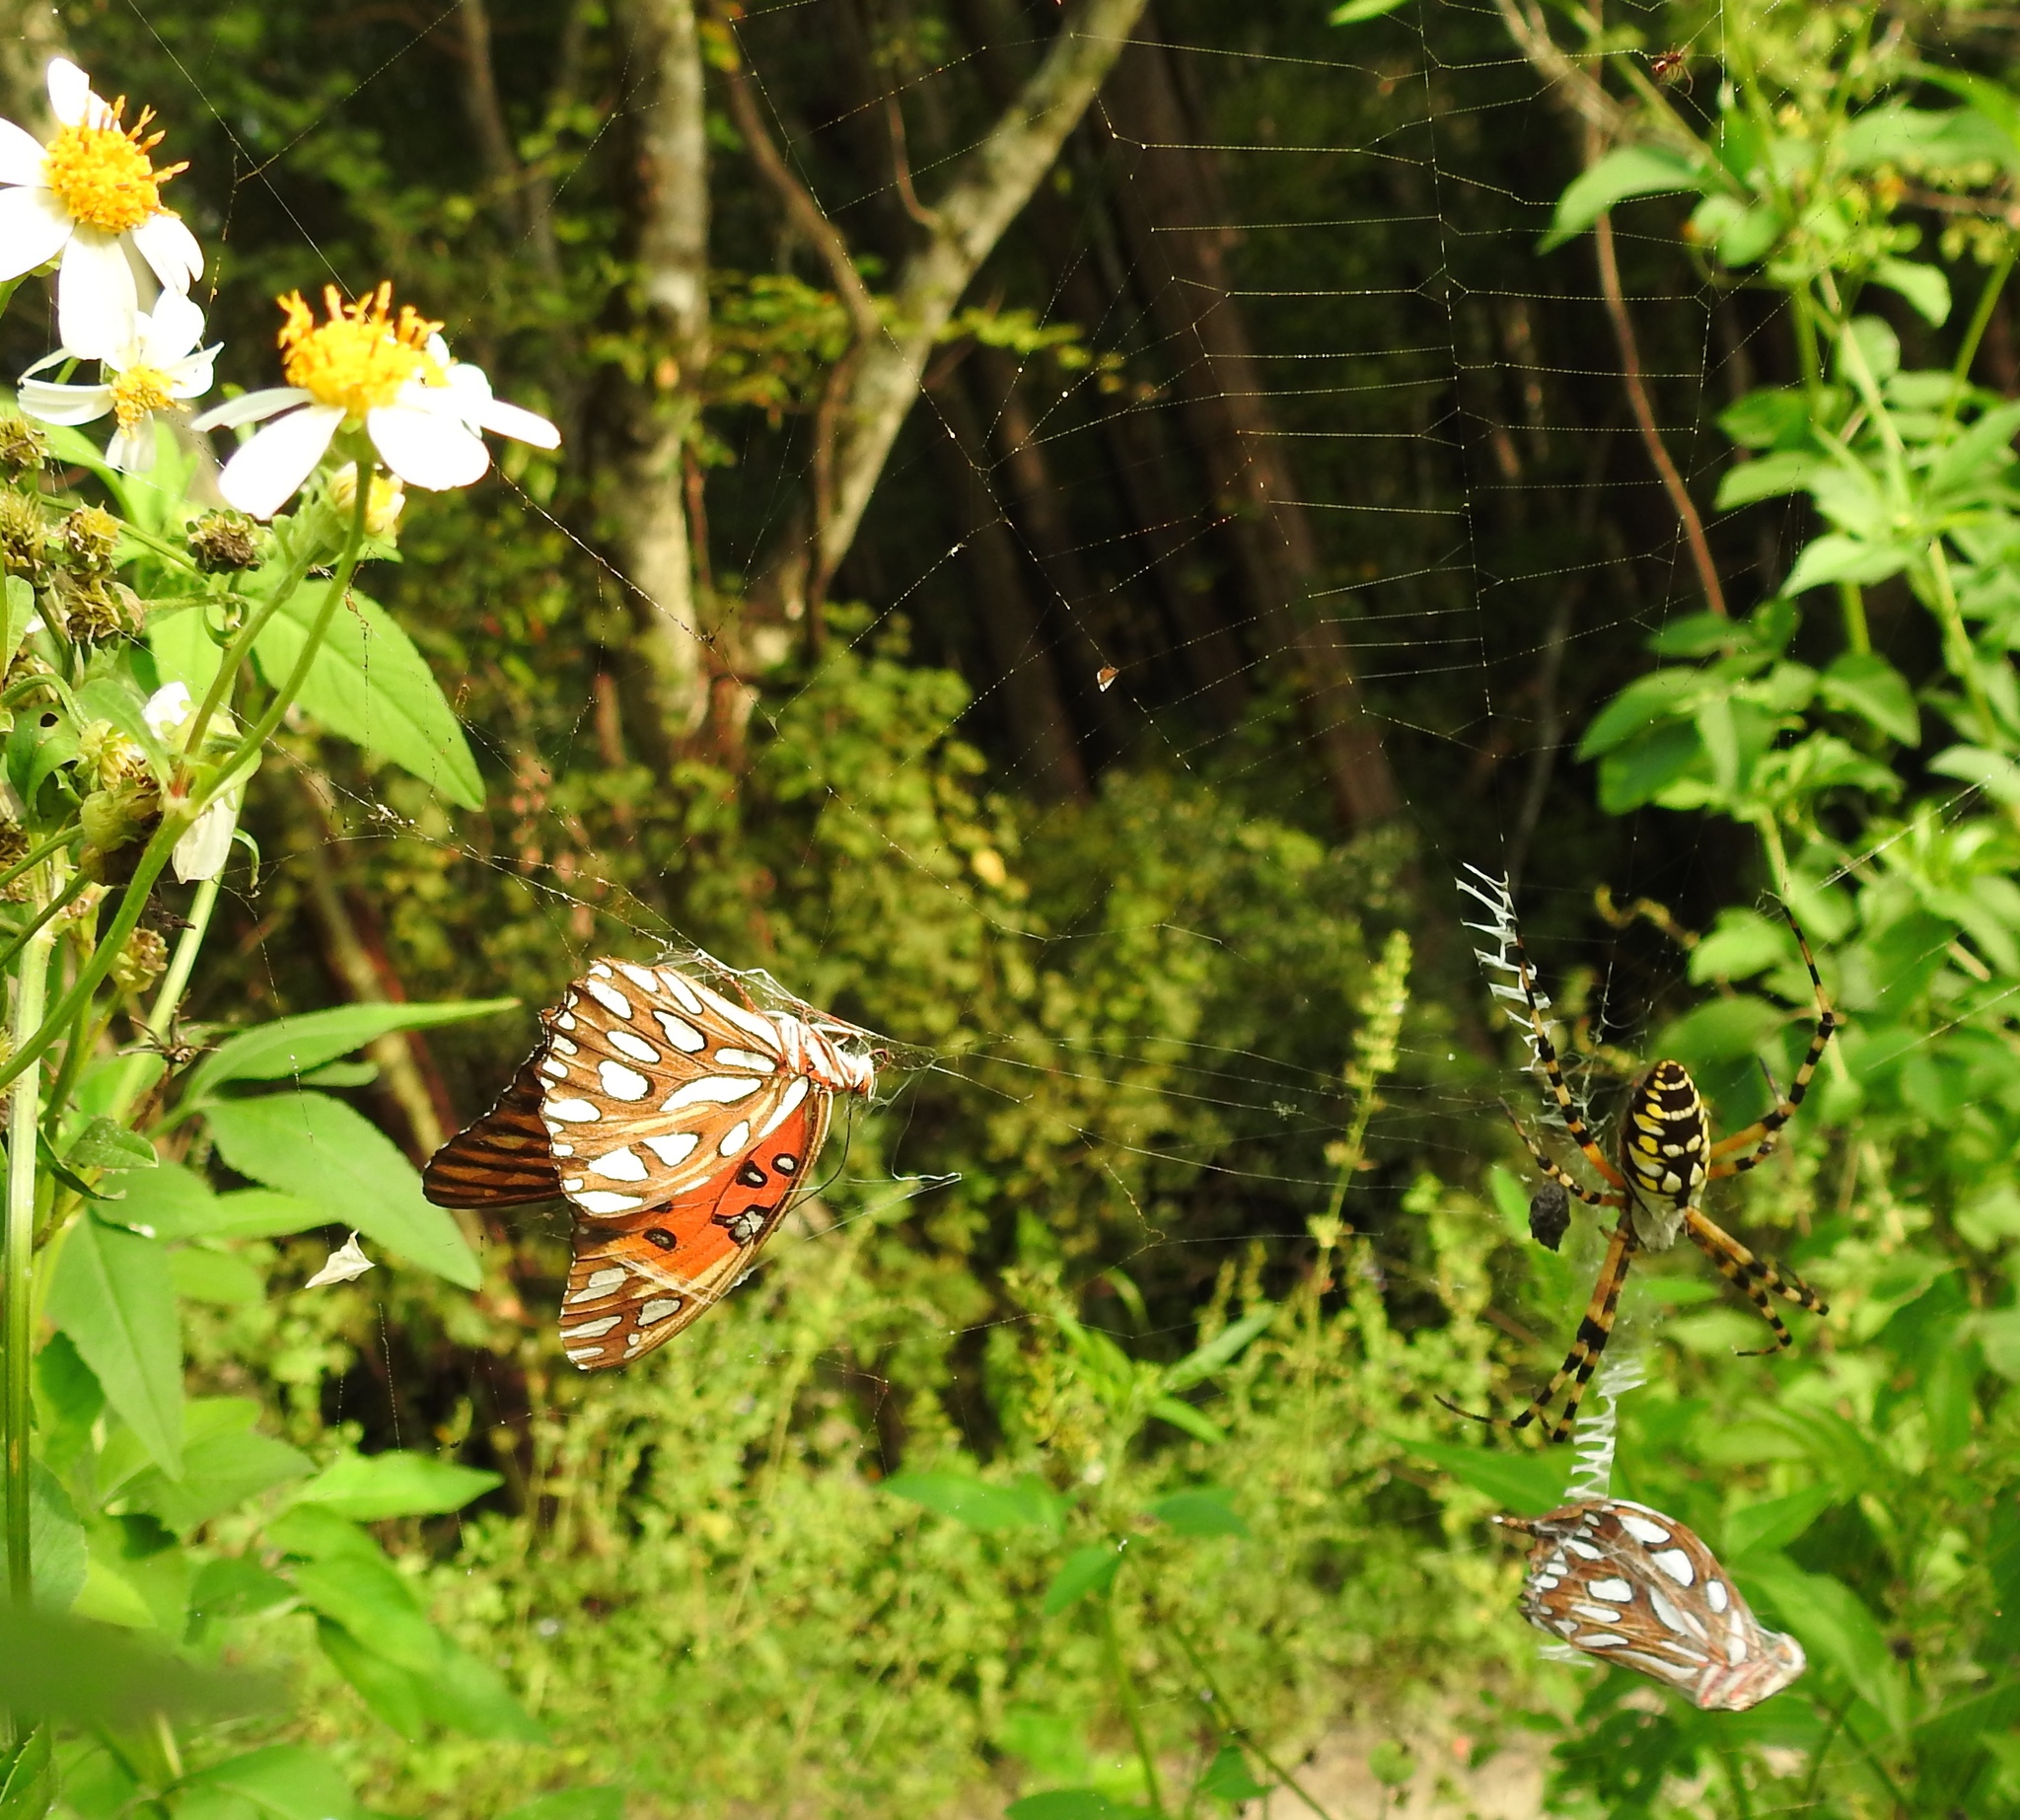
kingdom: Animalia
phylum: Arthropoda
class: Arachnida
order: Araneae
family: Araneidae
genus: Argiope
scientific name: Argiope aurantia
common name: Orb weavers
